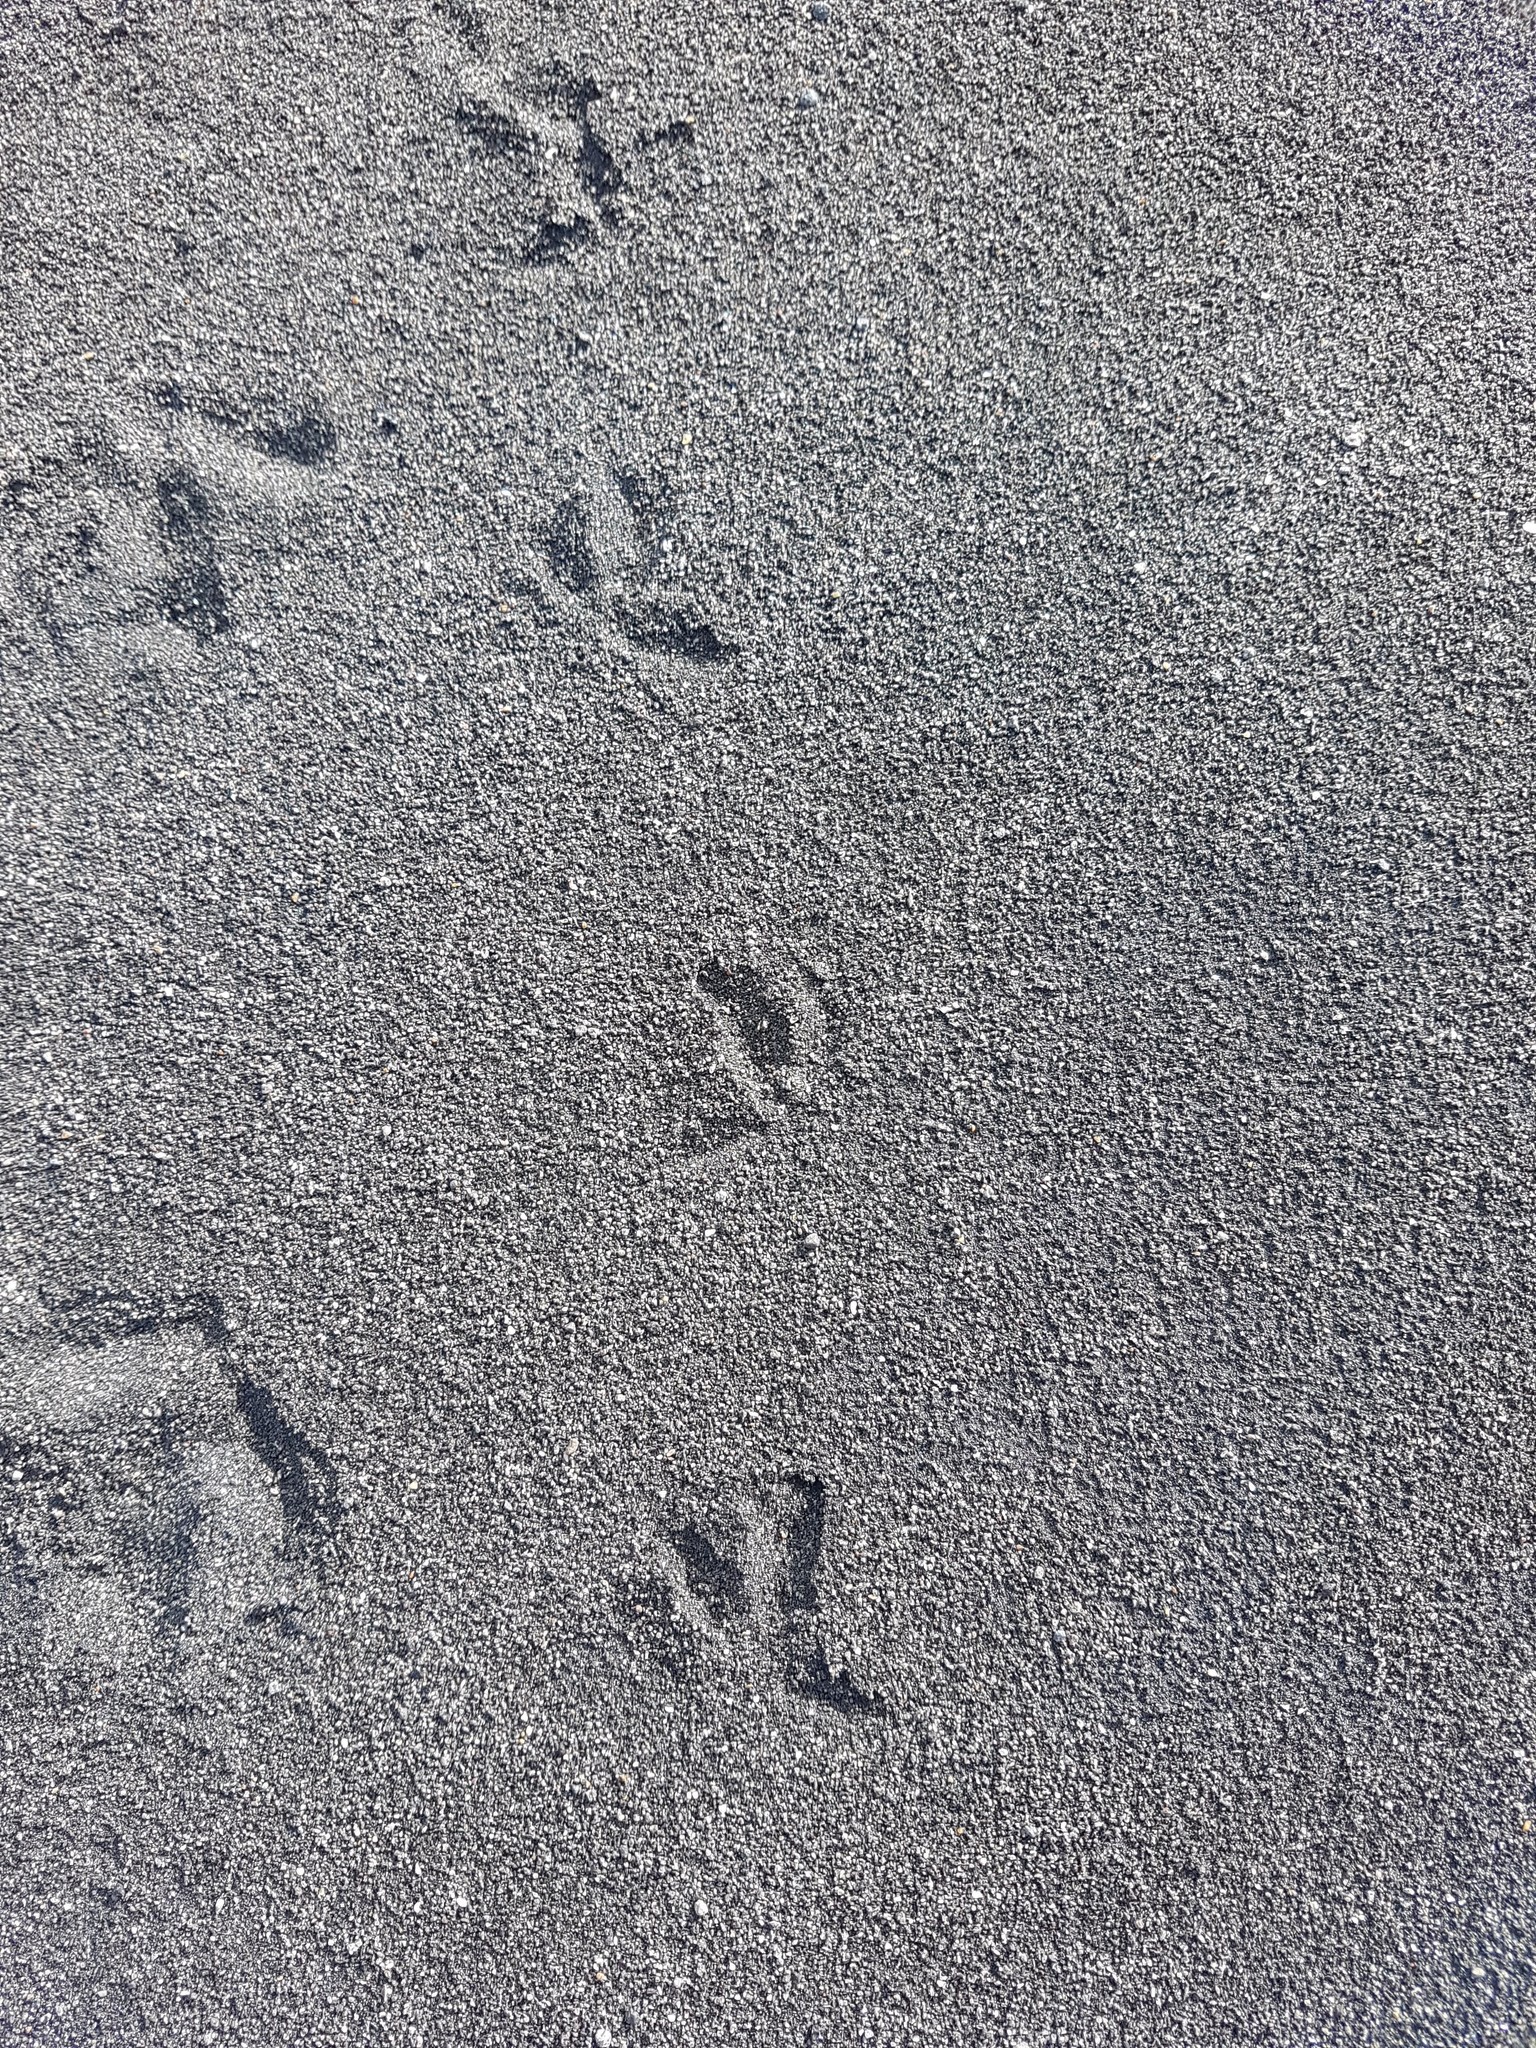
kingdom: Animalia
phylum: Chordata
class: Aves
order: Charadriiformes
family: Charadriidae
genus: Anarhynchus
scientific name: Anarhynchus
